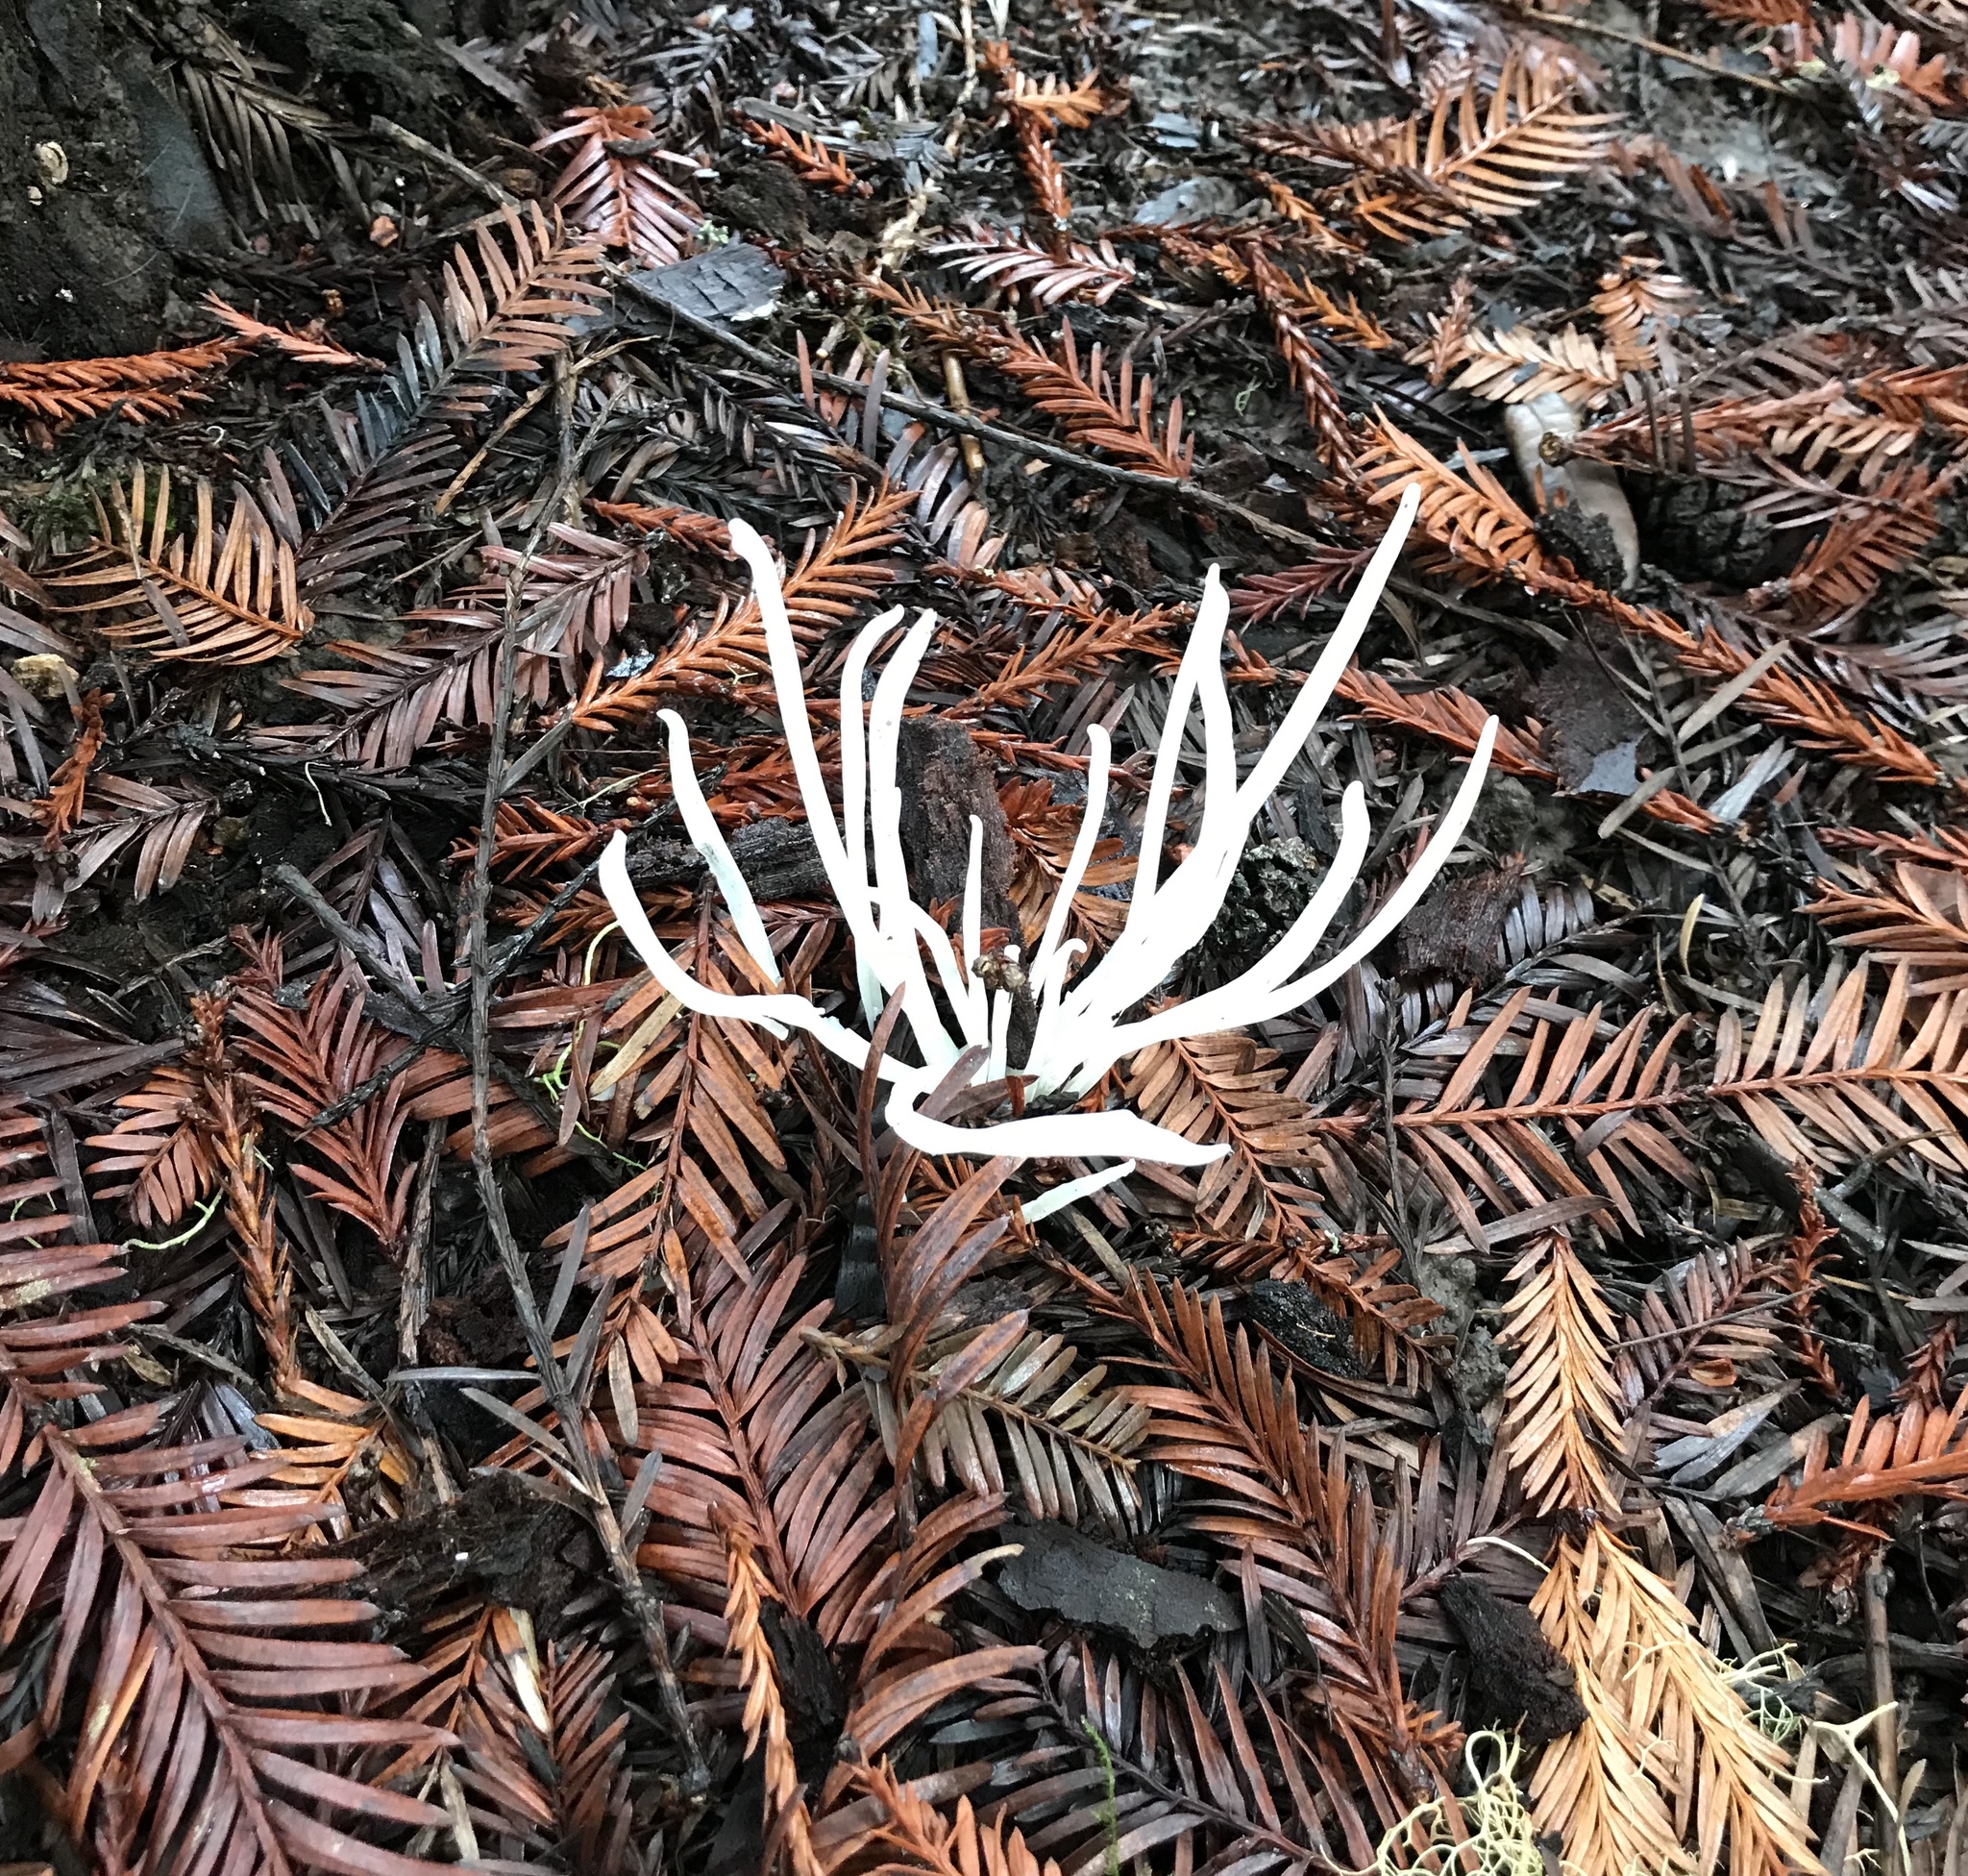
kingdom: Fungi
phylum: Basidiomycota
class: Agaricomycetes
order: Agaricales
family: Clavariaceae
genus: Clavaria
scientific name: Clavaria fragilis
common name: White spindles
